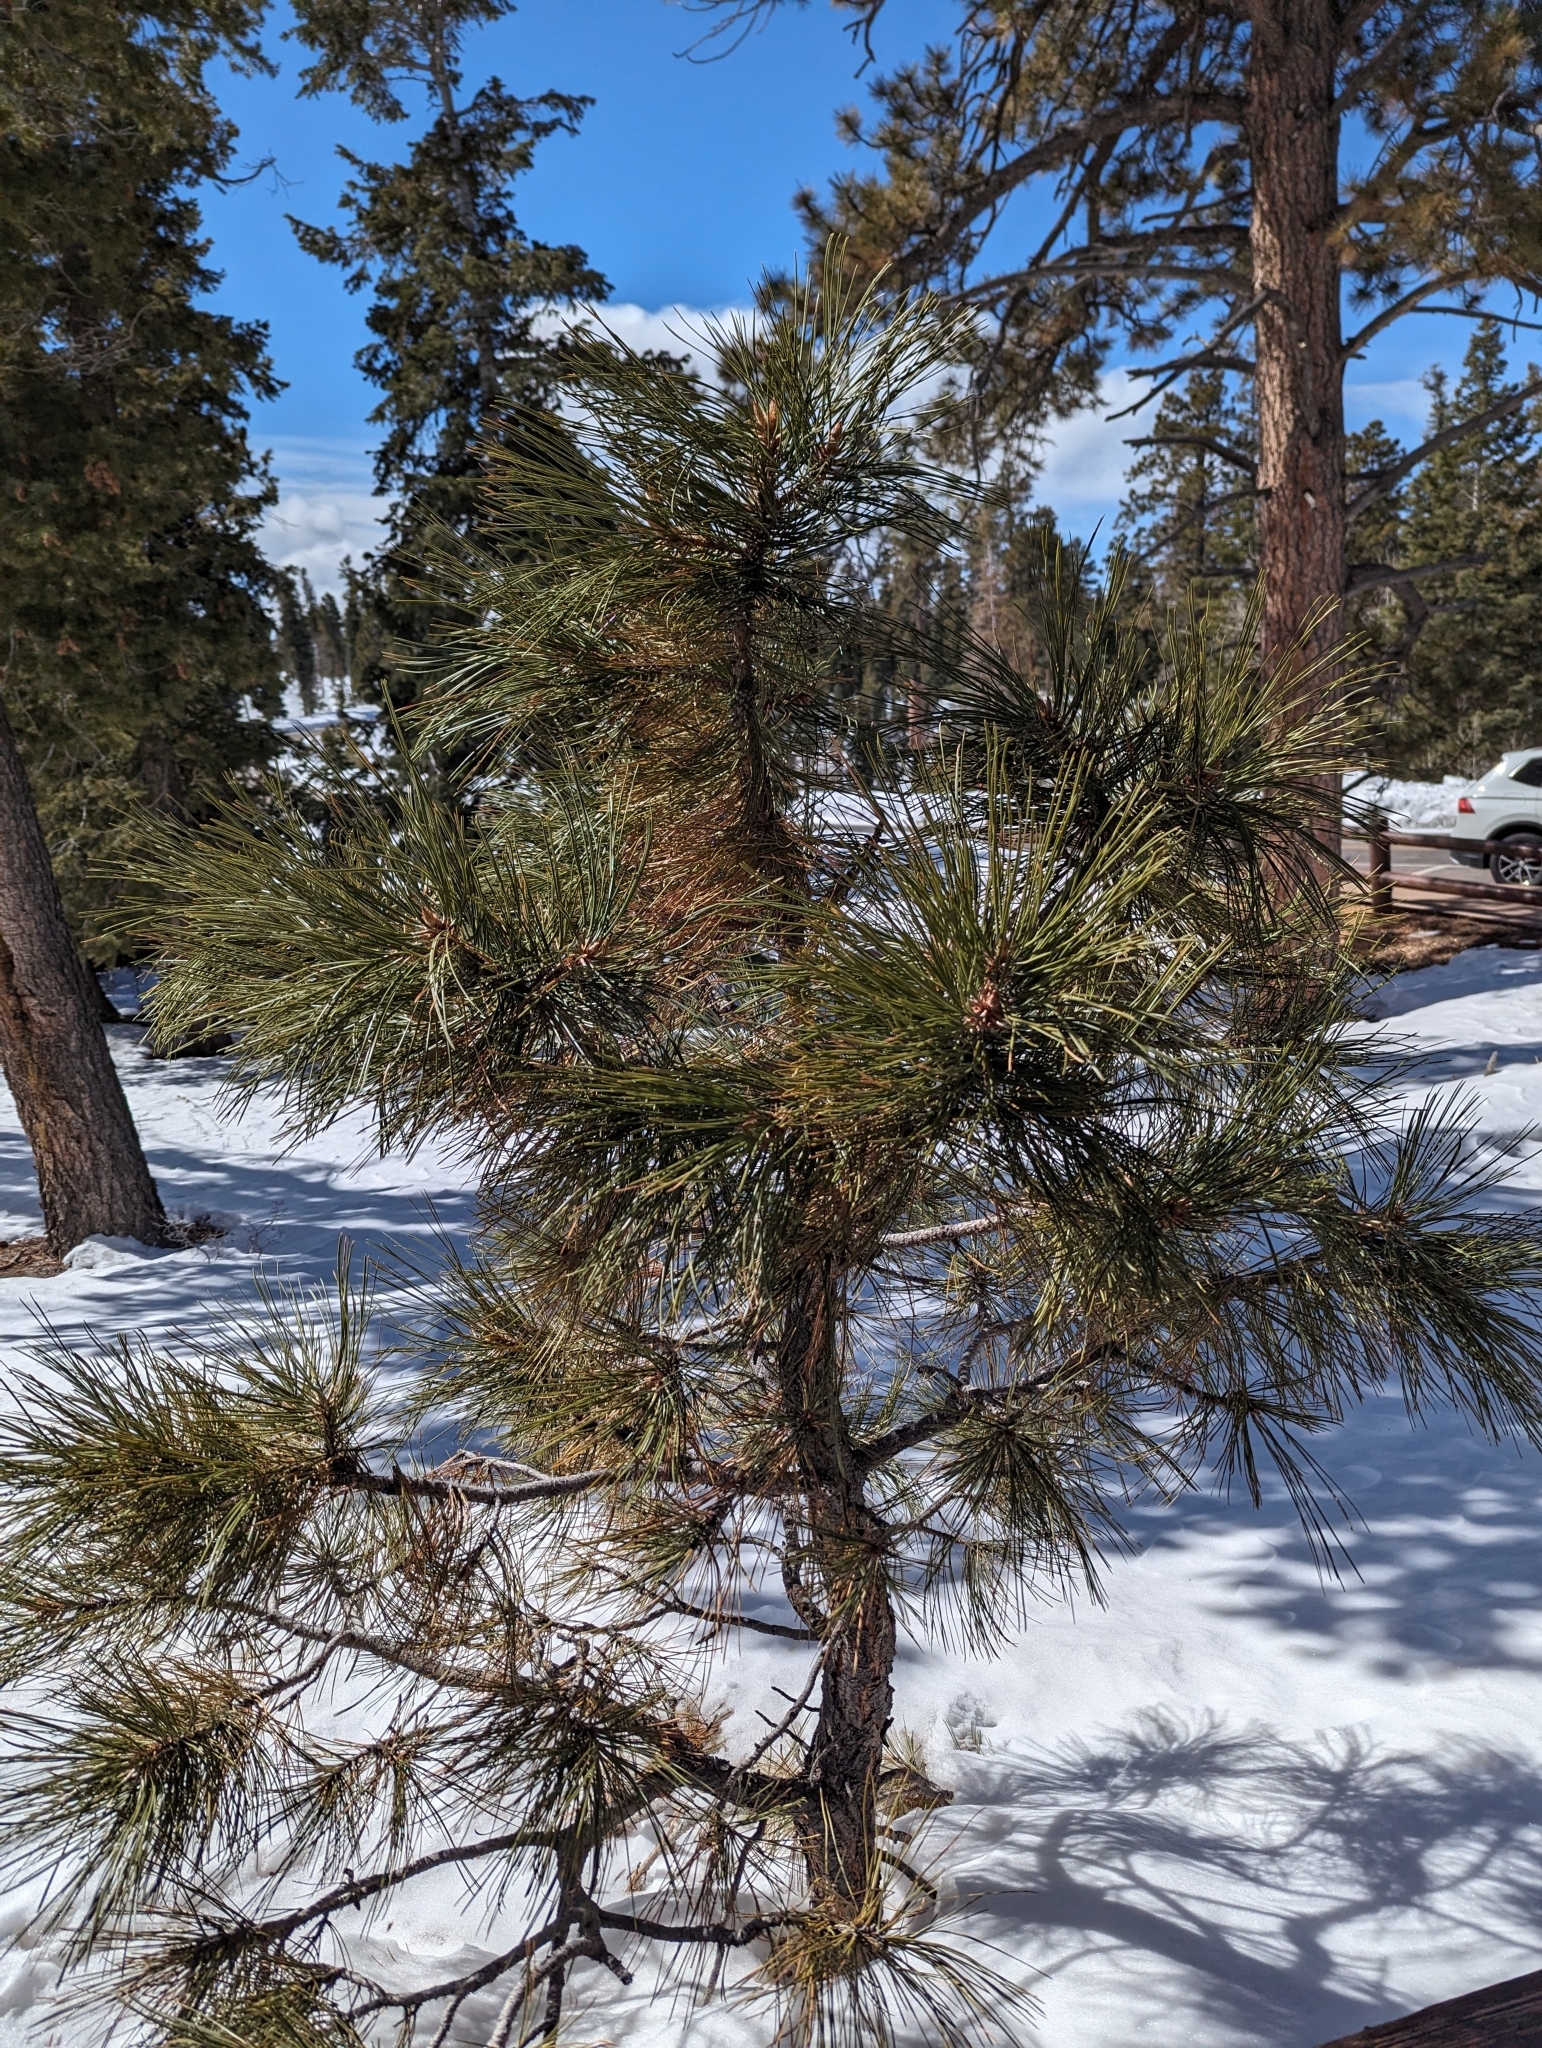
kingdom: Plantae
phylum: Tracheophyta
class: Pinopsida
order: Pinales
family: Pinaceae
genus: Pinus
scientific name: Pinus ponderosa
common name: Western yellow-pine
